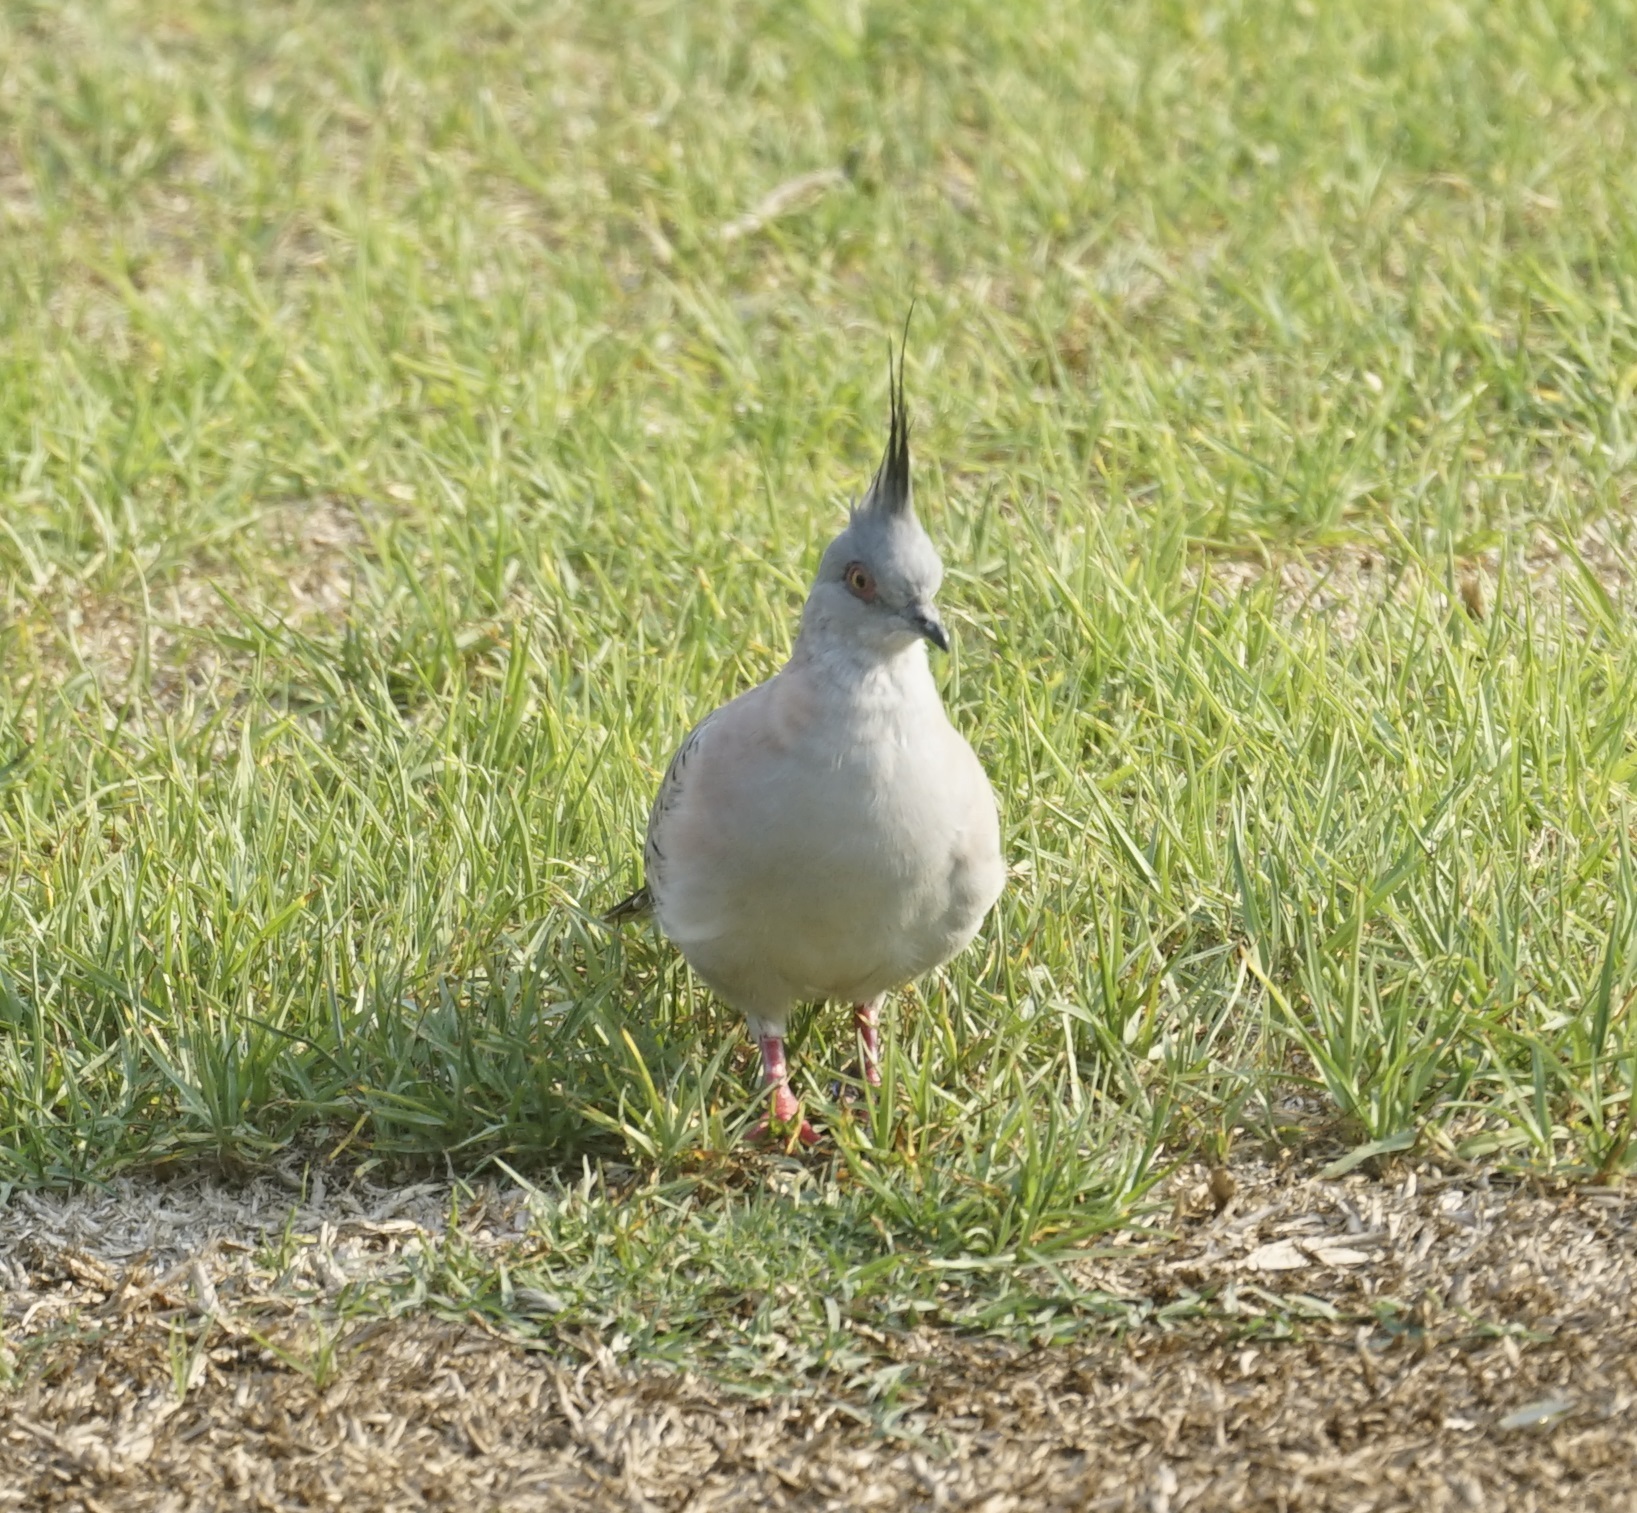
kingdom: Animalia
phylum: Chordata
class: Aves
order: Columbiformes
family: Columbidae
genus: Ocyphaps
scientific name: Ocyphaps lophotes
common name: Crested pigeon
